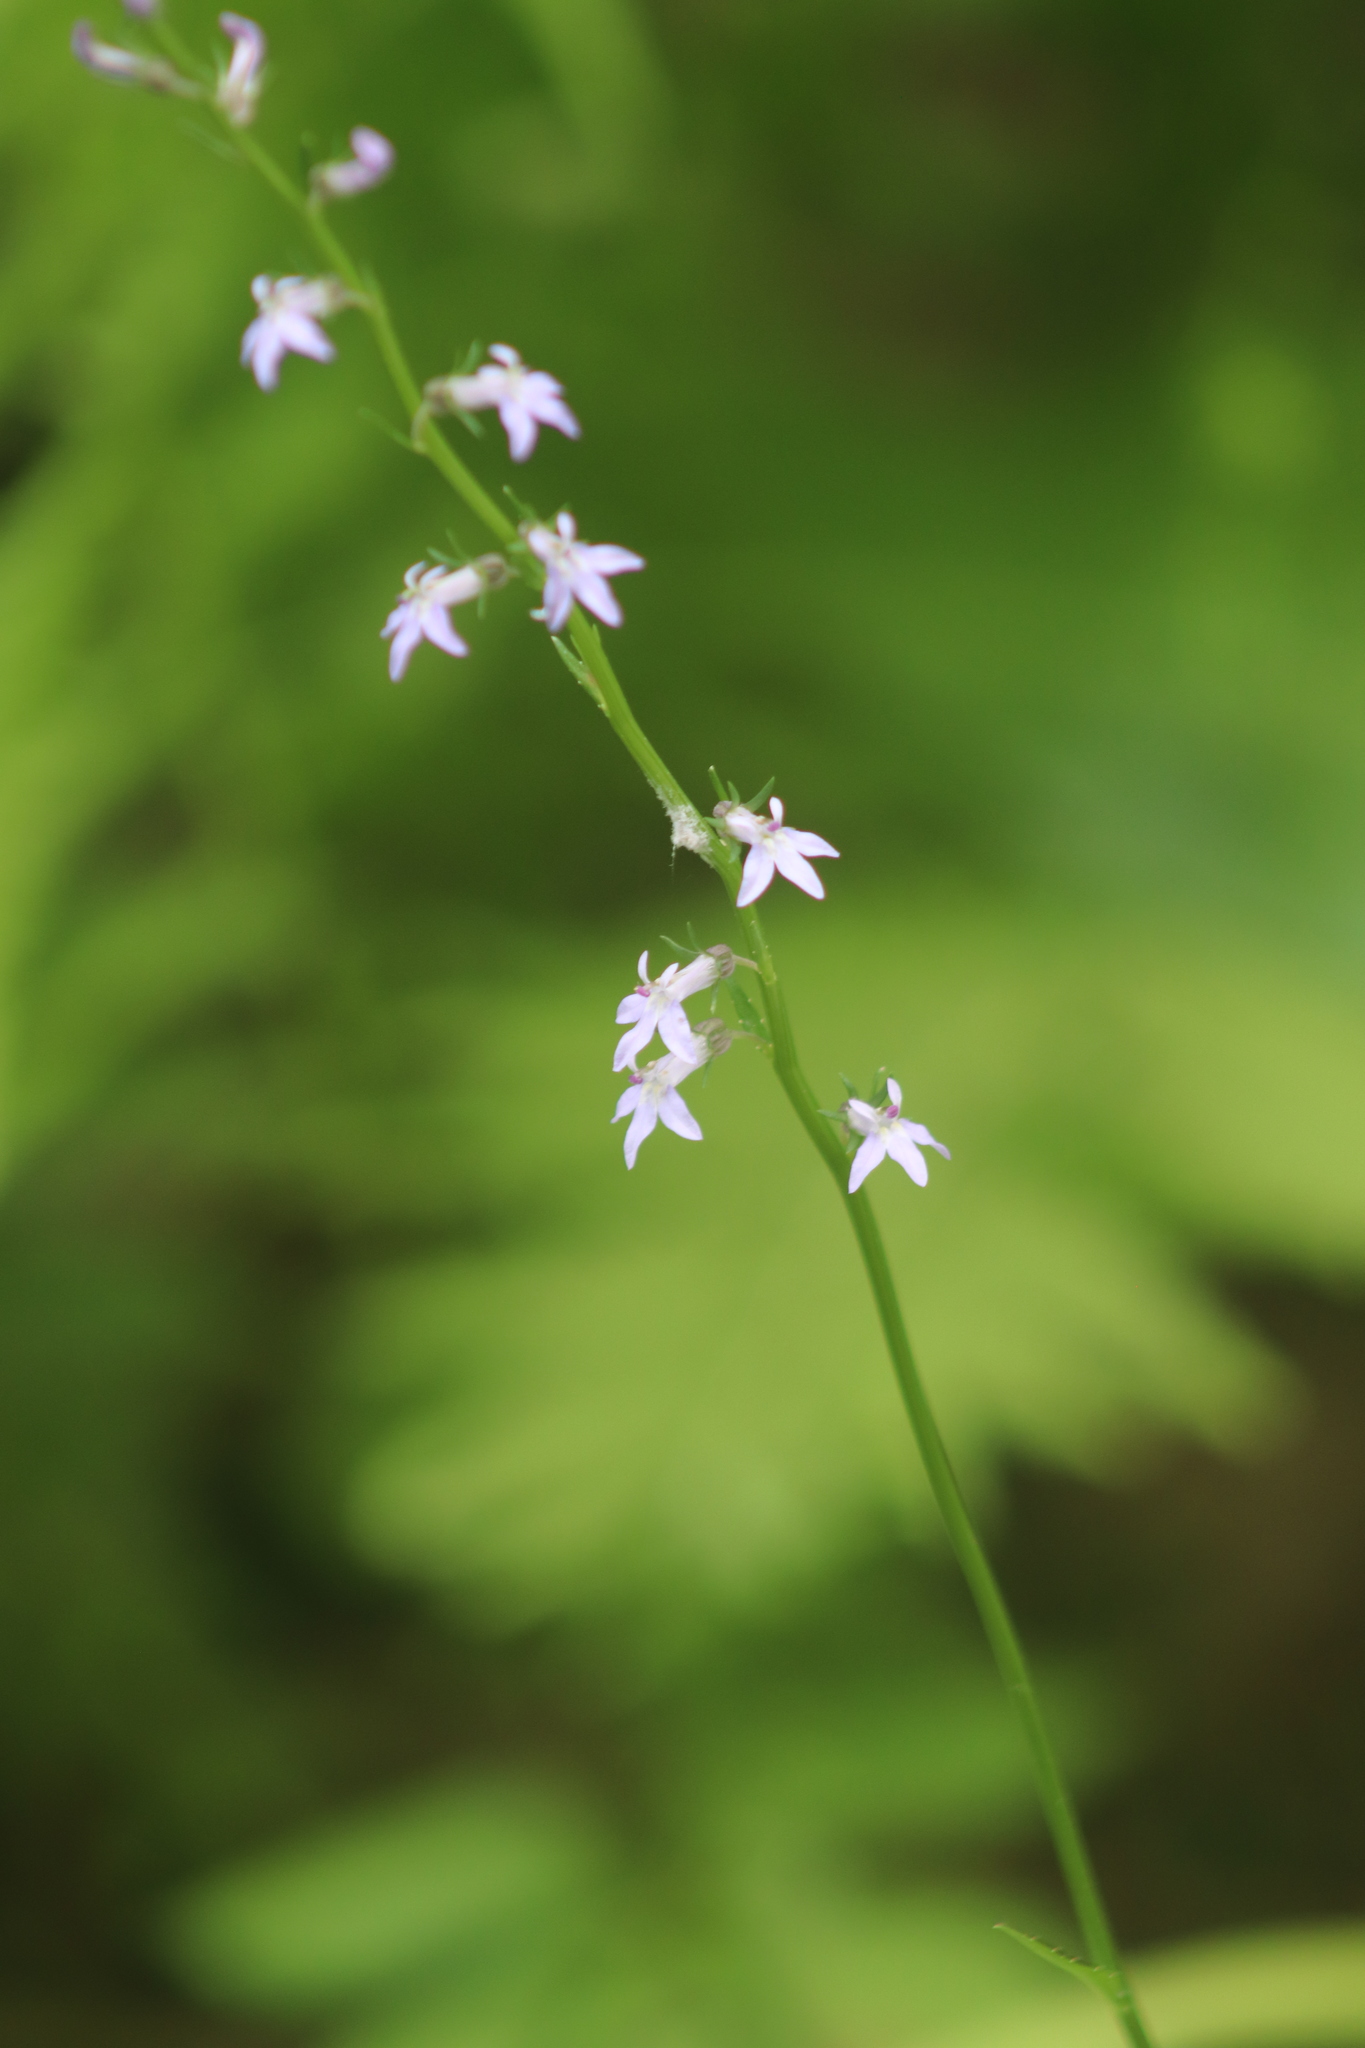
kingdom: Plantae
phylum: Tracheophyta
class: Magnoliopsida
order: Asterales
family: Campanulaceae
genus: Lobelia
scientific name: Lobelia spicata
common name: Pale-spike lobelia
